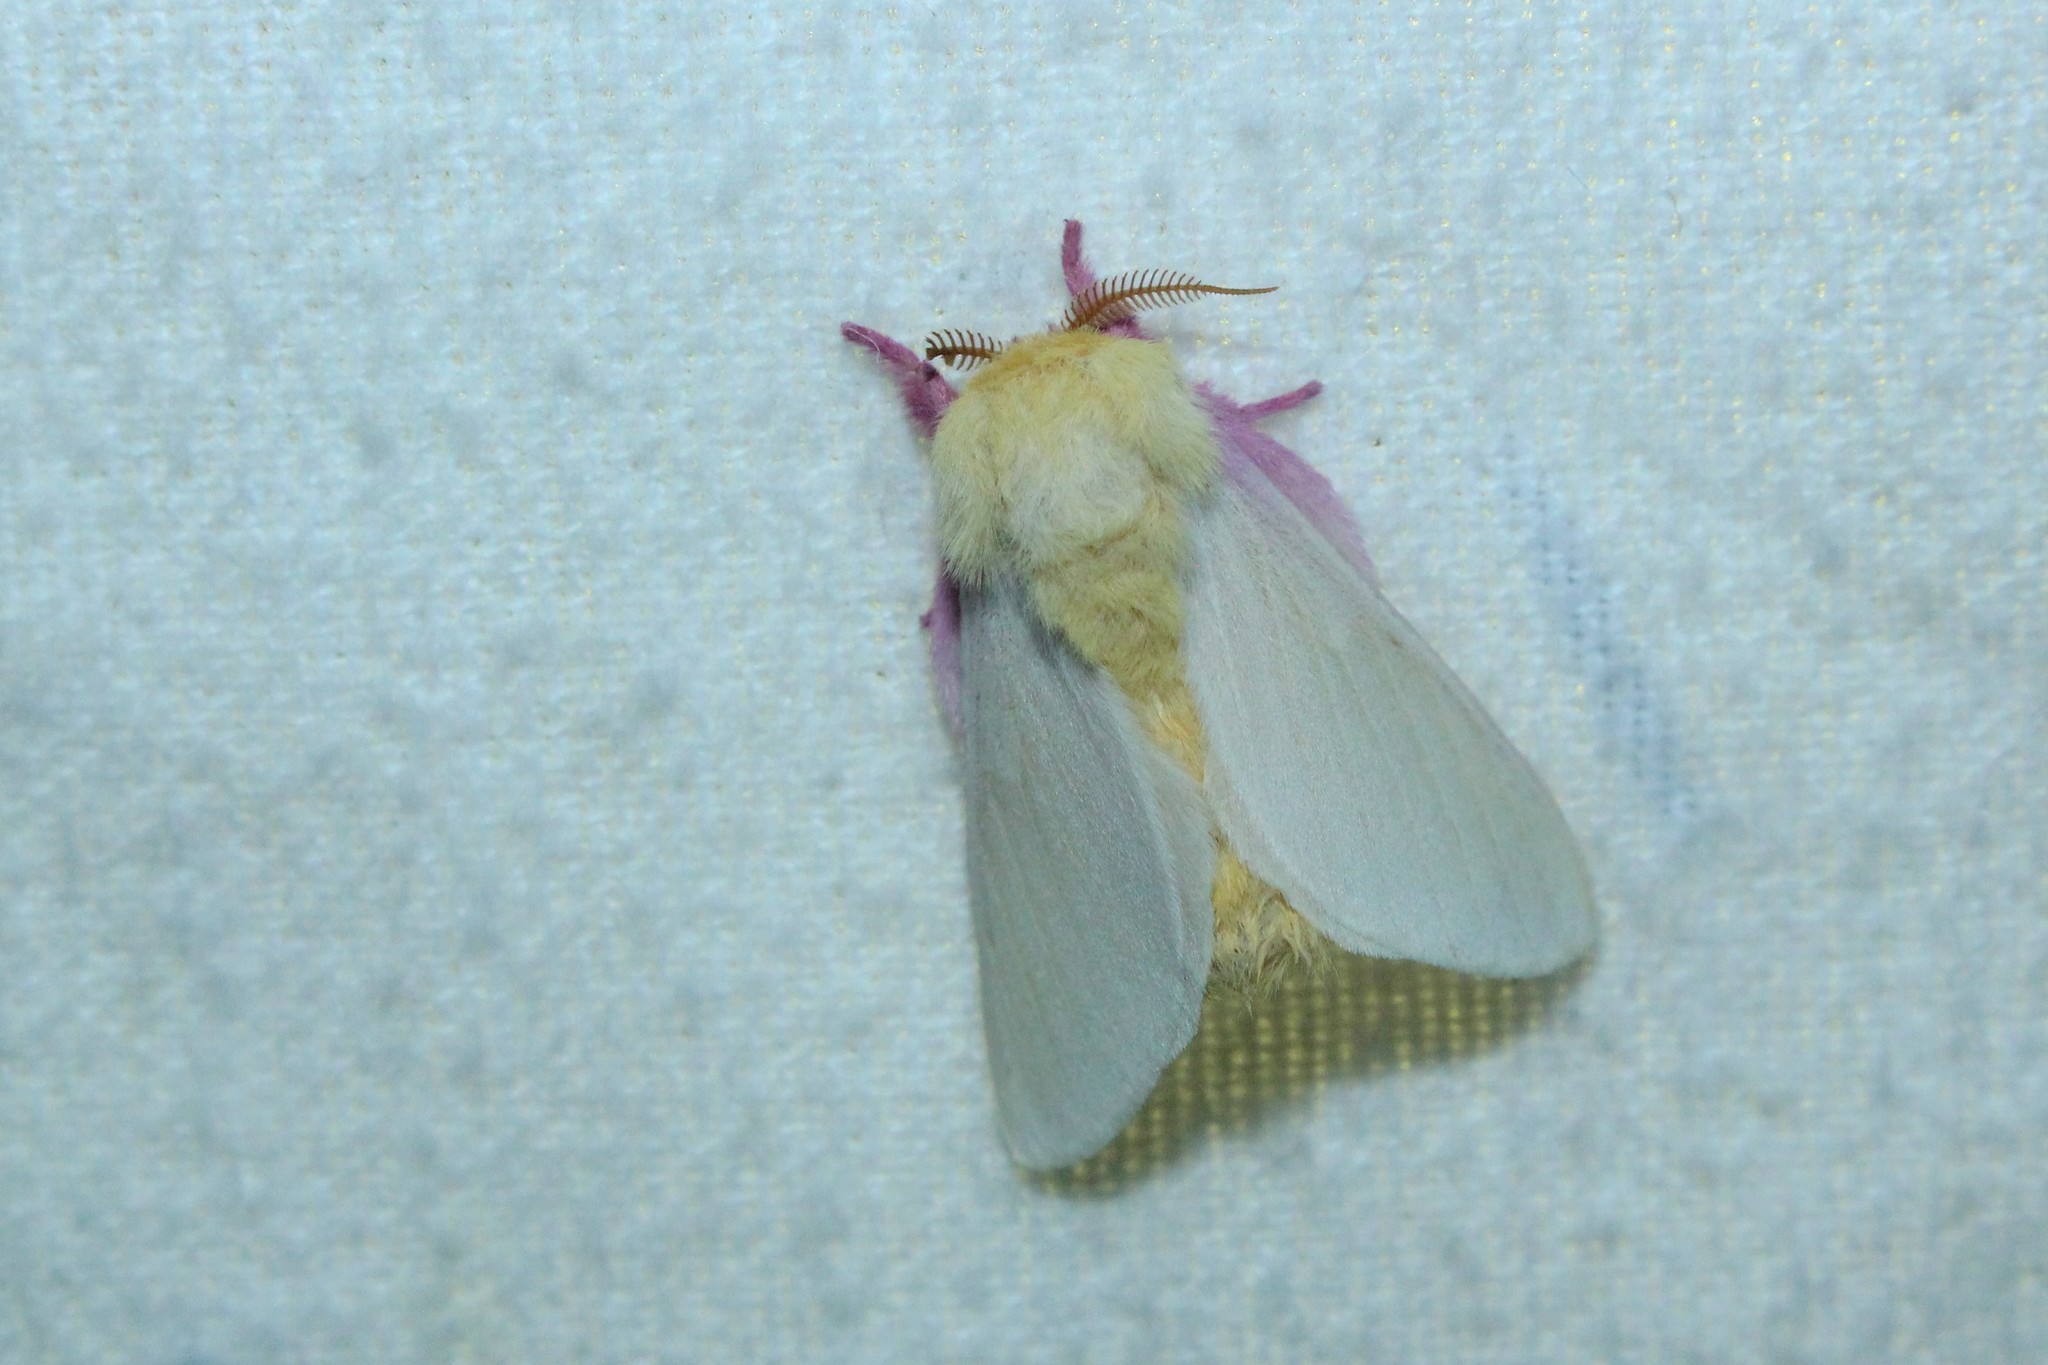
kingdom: Animalia
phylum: Arthropoda
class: Insecta
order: Lepidoptera
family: Saturniidae
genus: Dryocampa
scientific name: Dryocampa rubicunda
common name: Rosy maple moth
